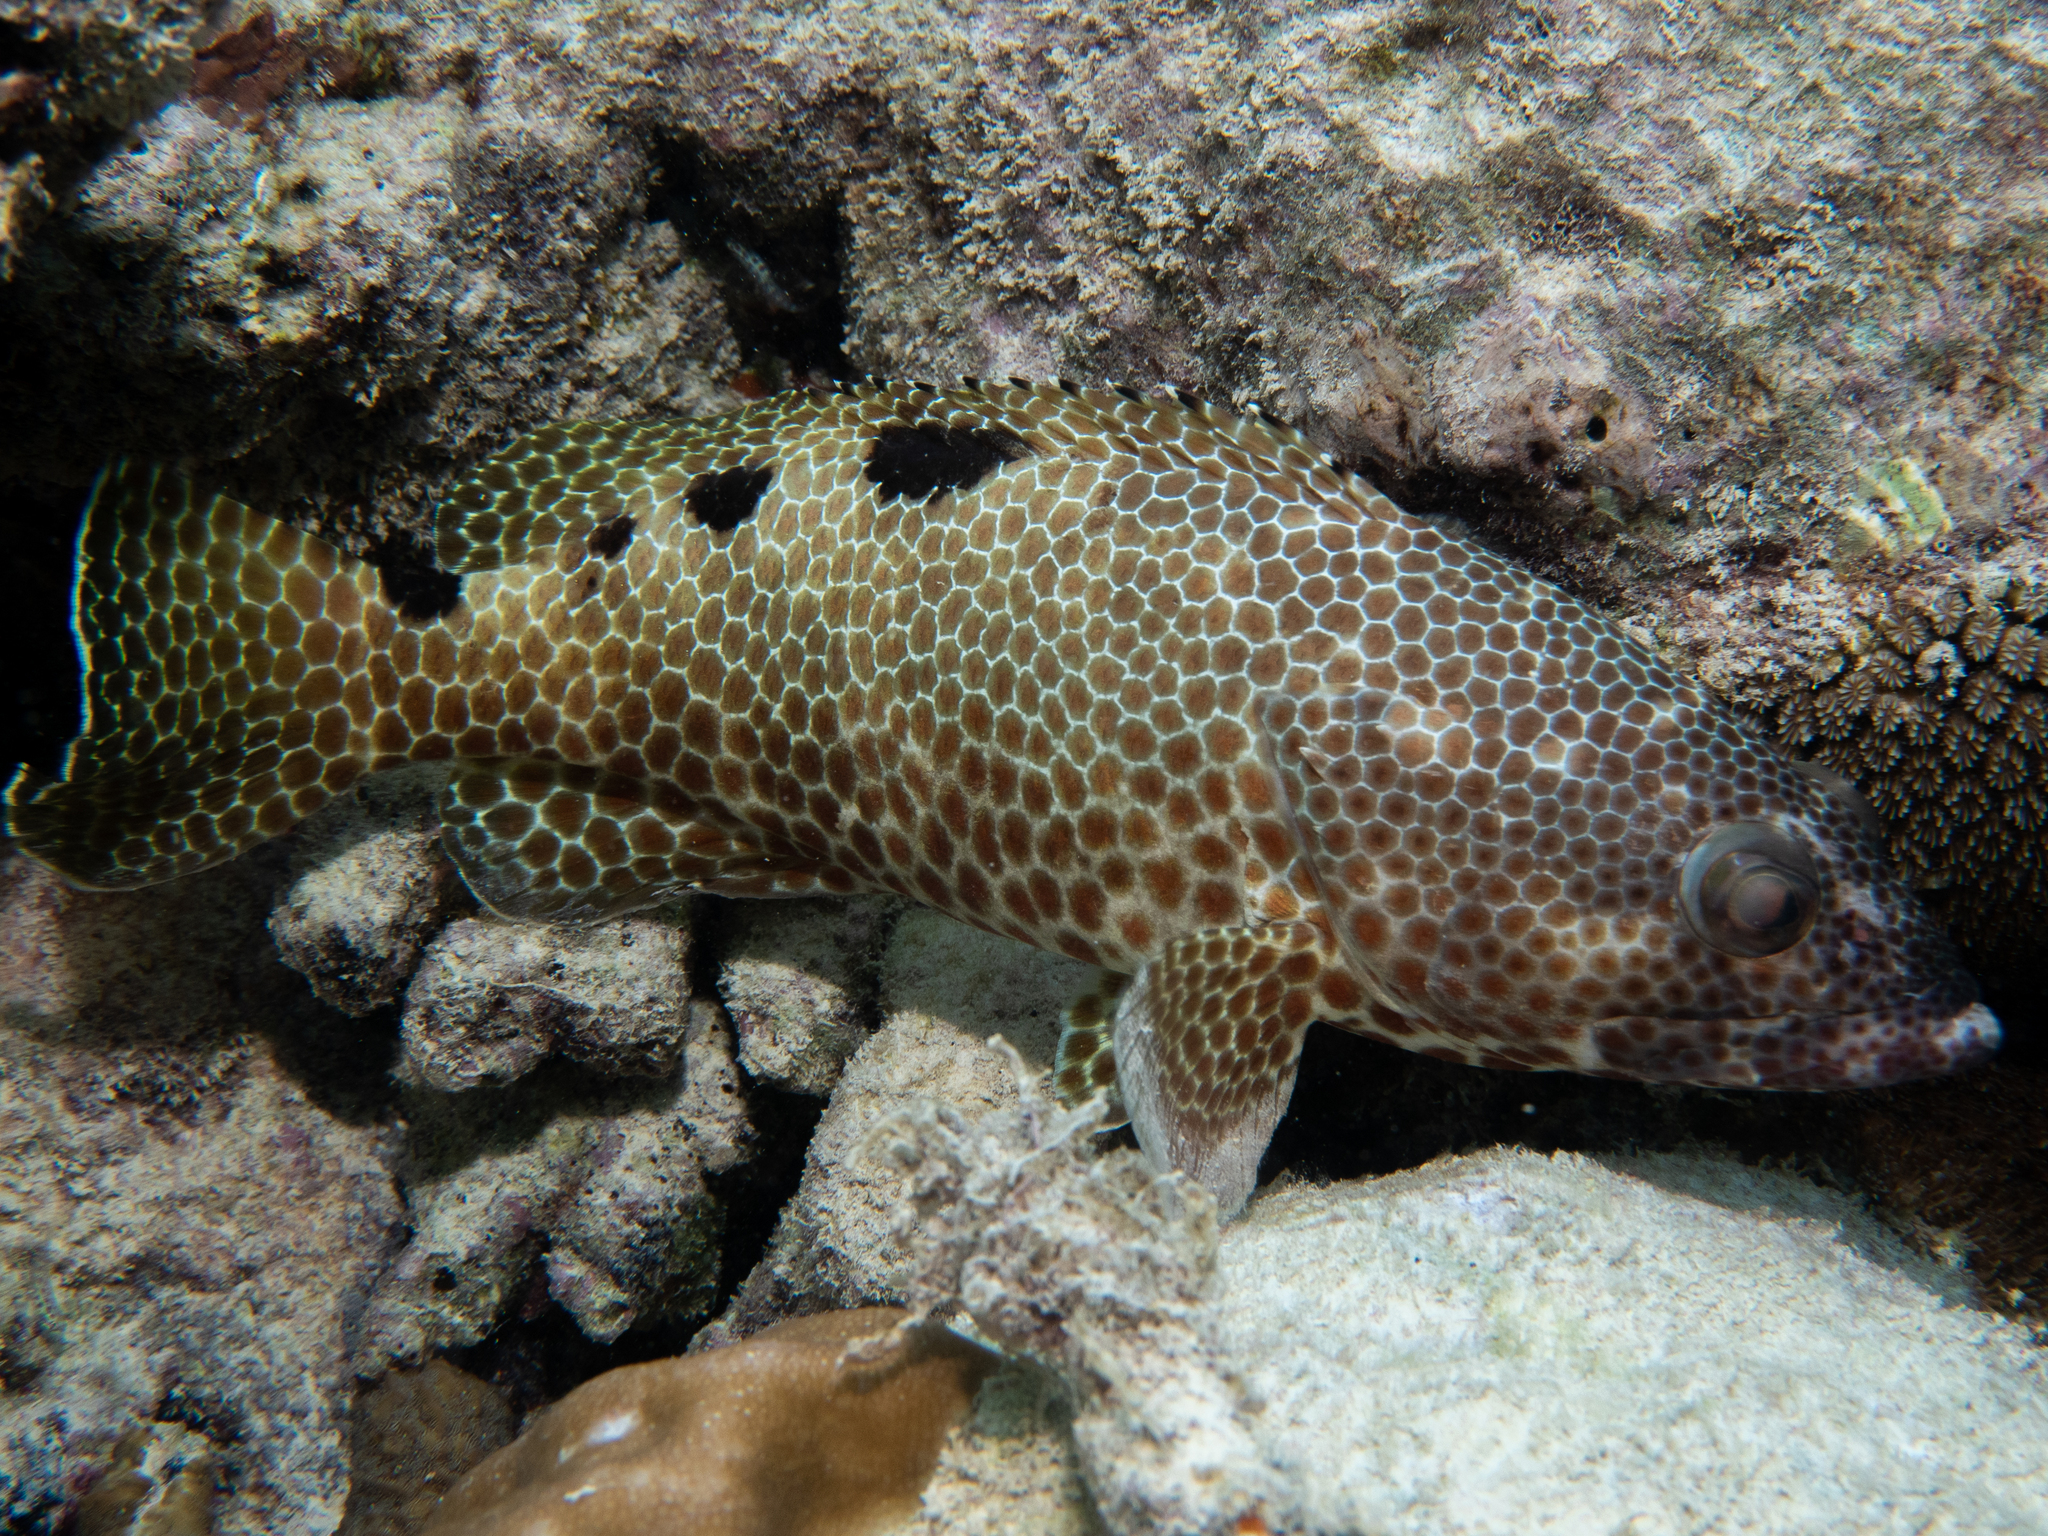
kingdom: Animalia
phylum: Chordata
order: Perciformes
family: Serranidae
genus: Epinephelus
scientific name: Epinephelus spilotoceps
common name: Foursaddle grouper
